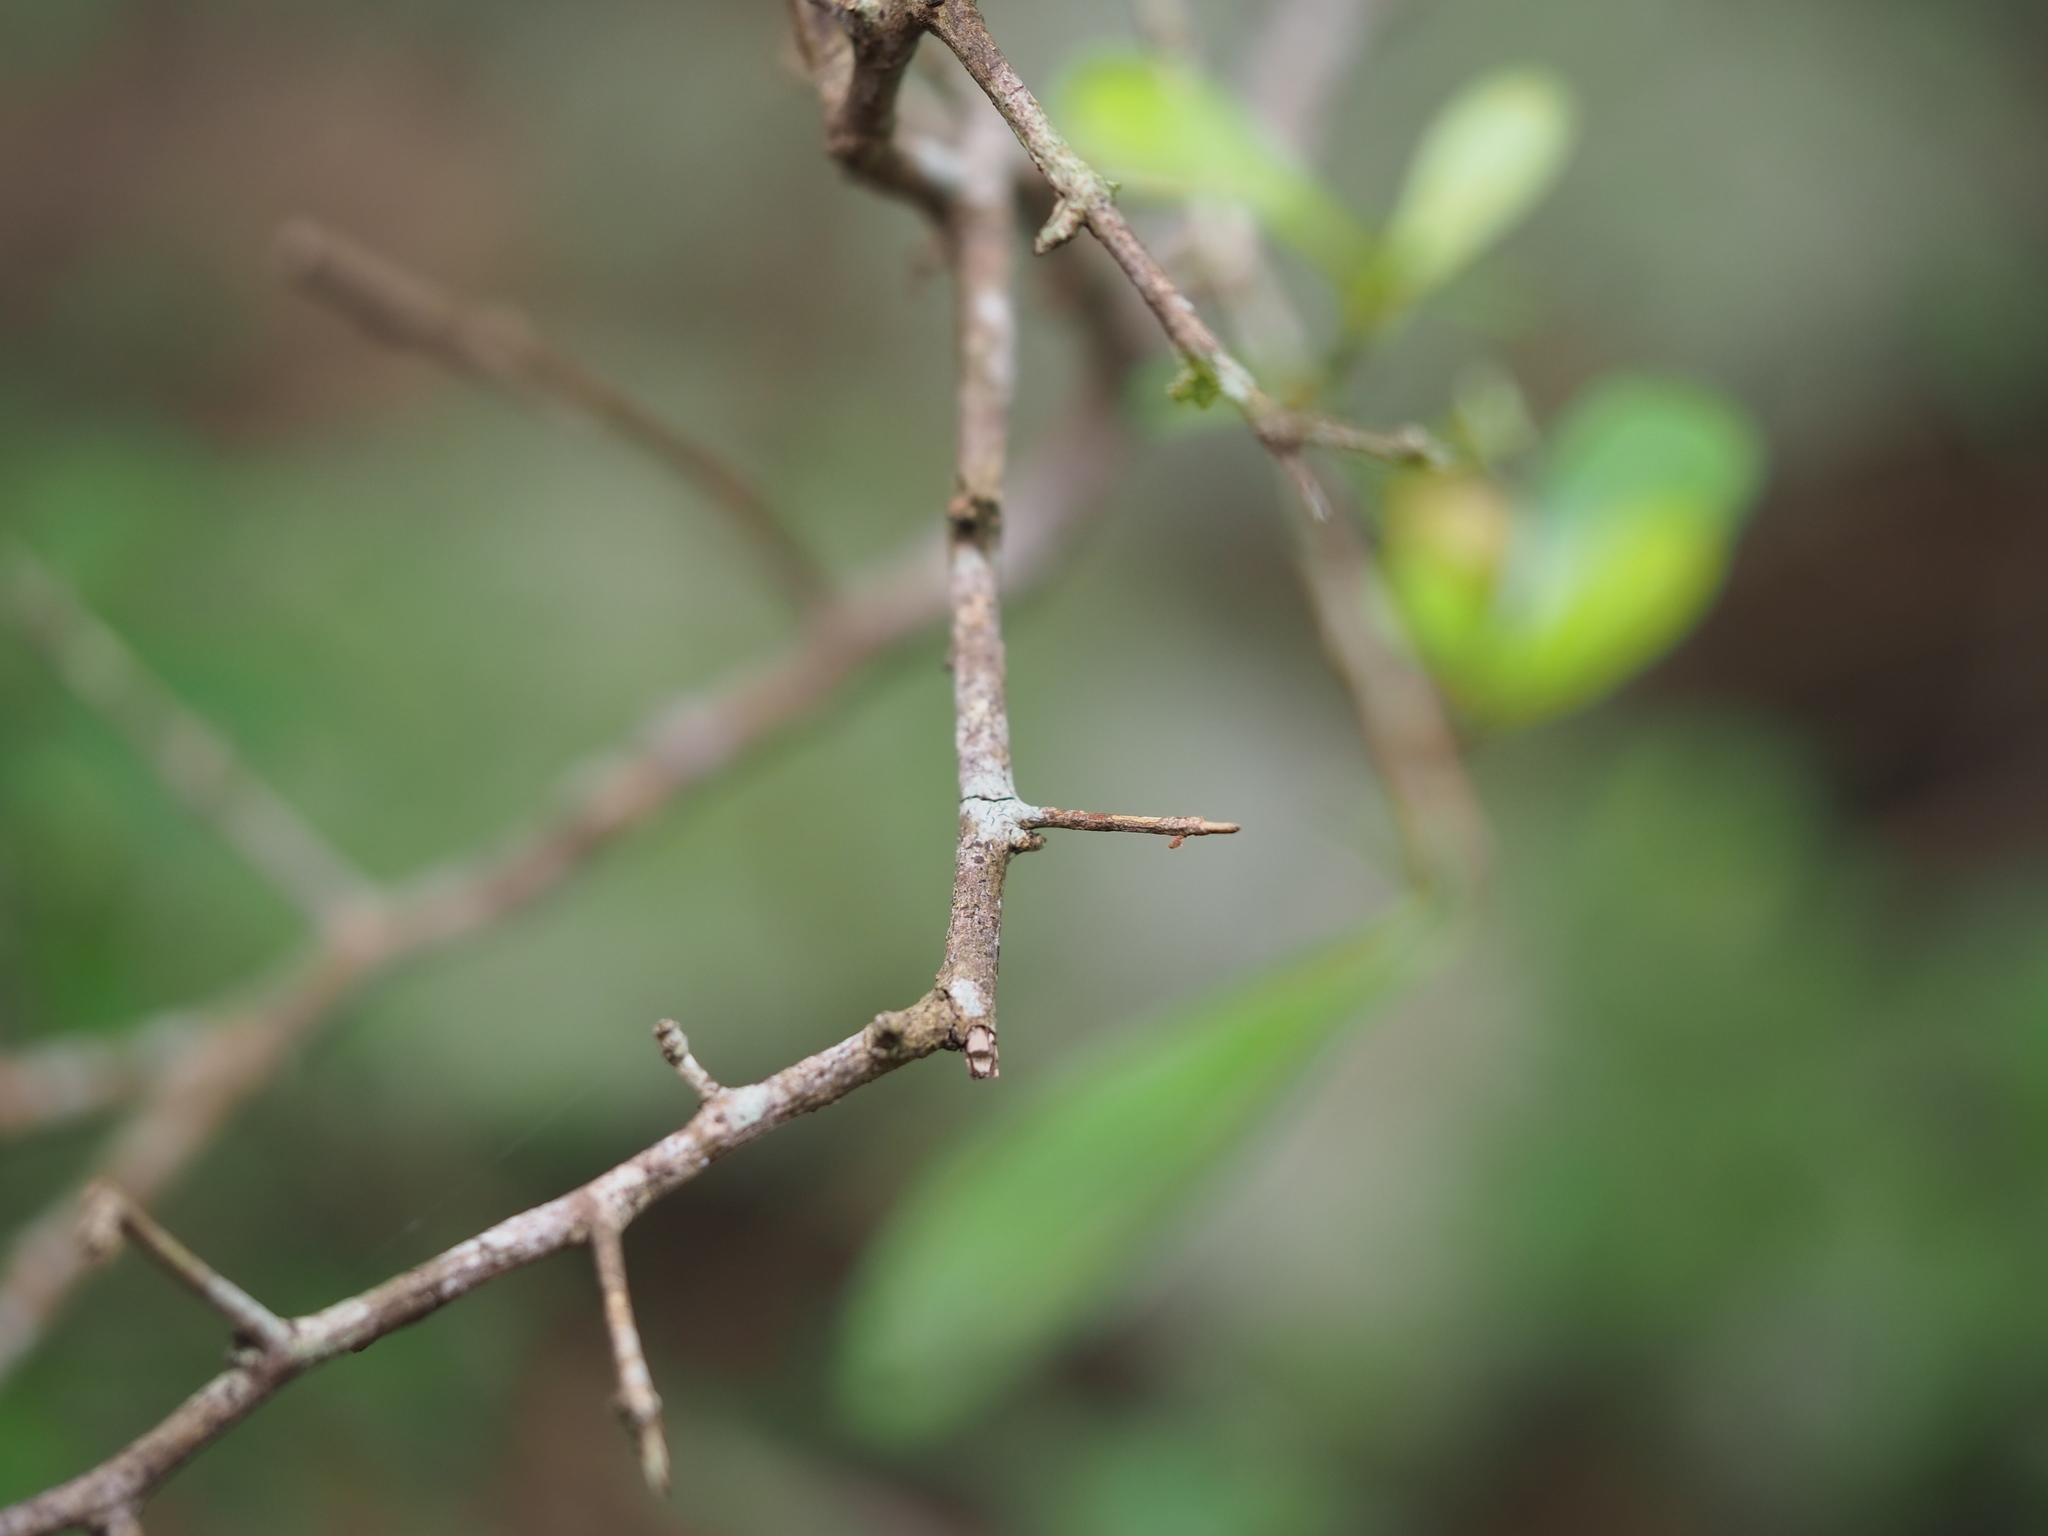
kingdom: Plantae
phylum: Tracheophyta
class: Magnoliopsida
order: Celastrales
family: Celastraceae
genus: Gymnosporia
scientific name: Gymnosporia diversifolia
